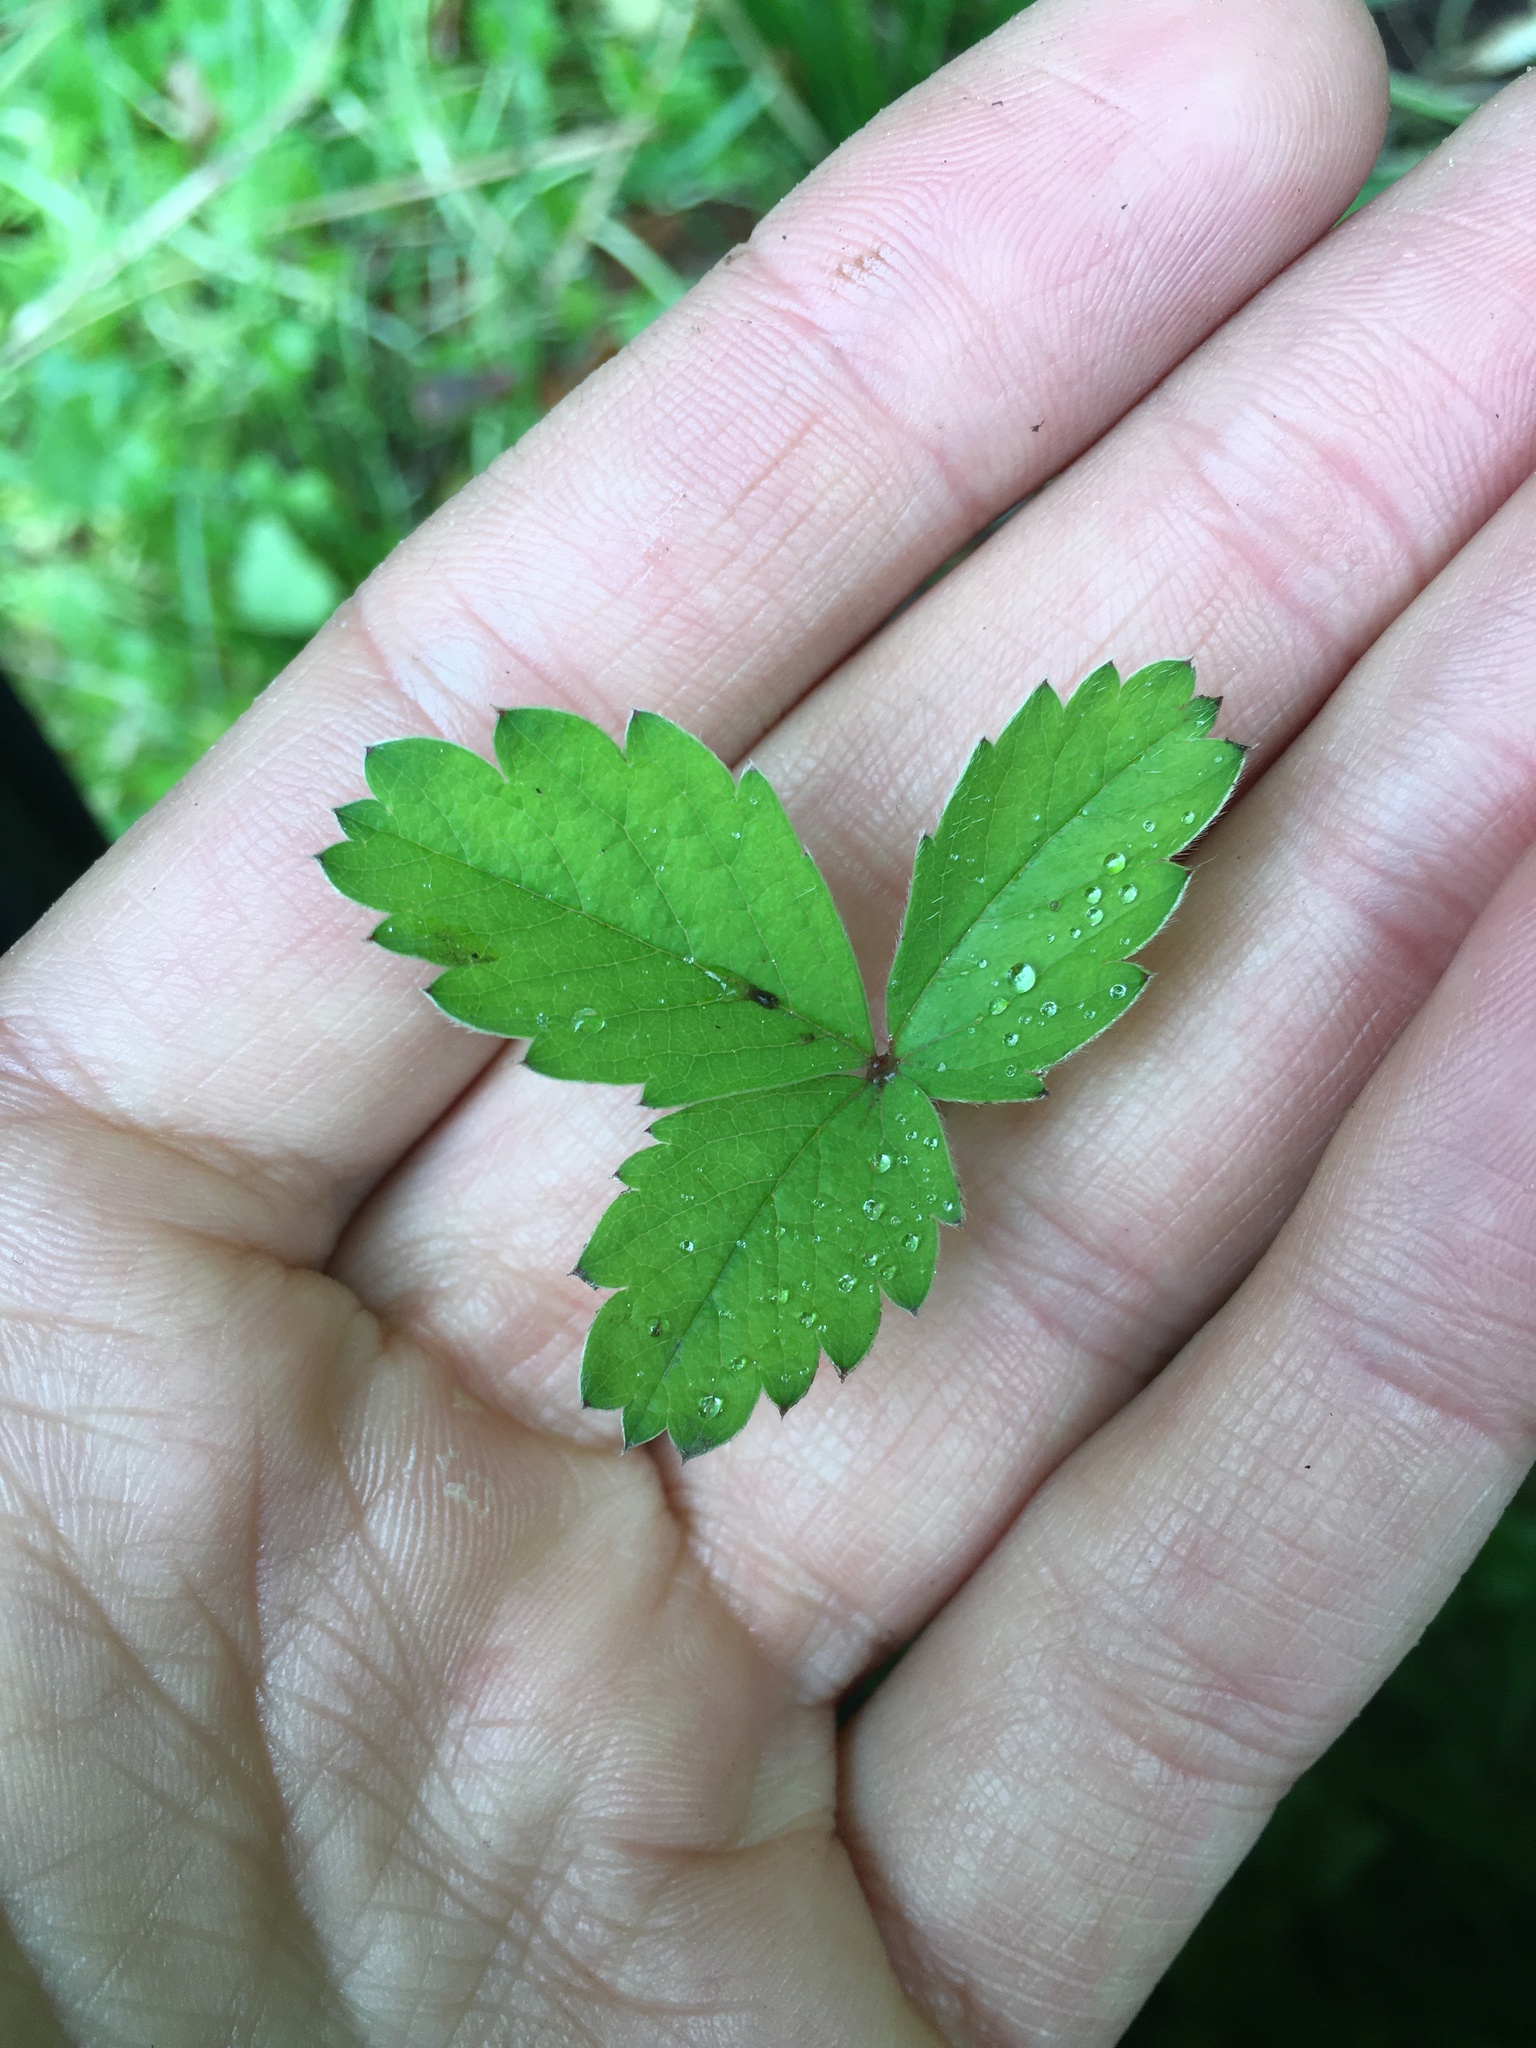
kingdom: Plantae
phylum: Tracheophyta
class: Magnoliopsida
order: Rosales
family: Rosaceae
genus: Potentilla
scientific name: Potentilla sterilis
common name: Barren strawberry
